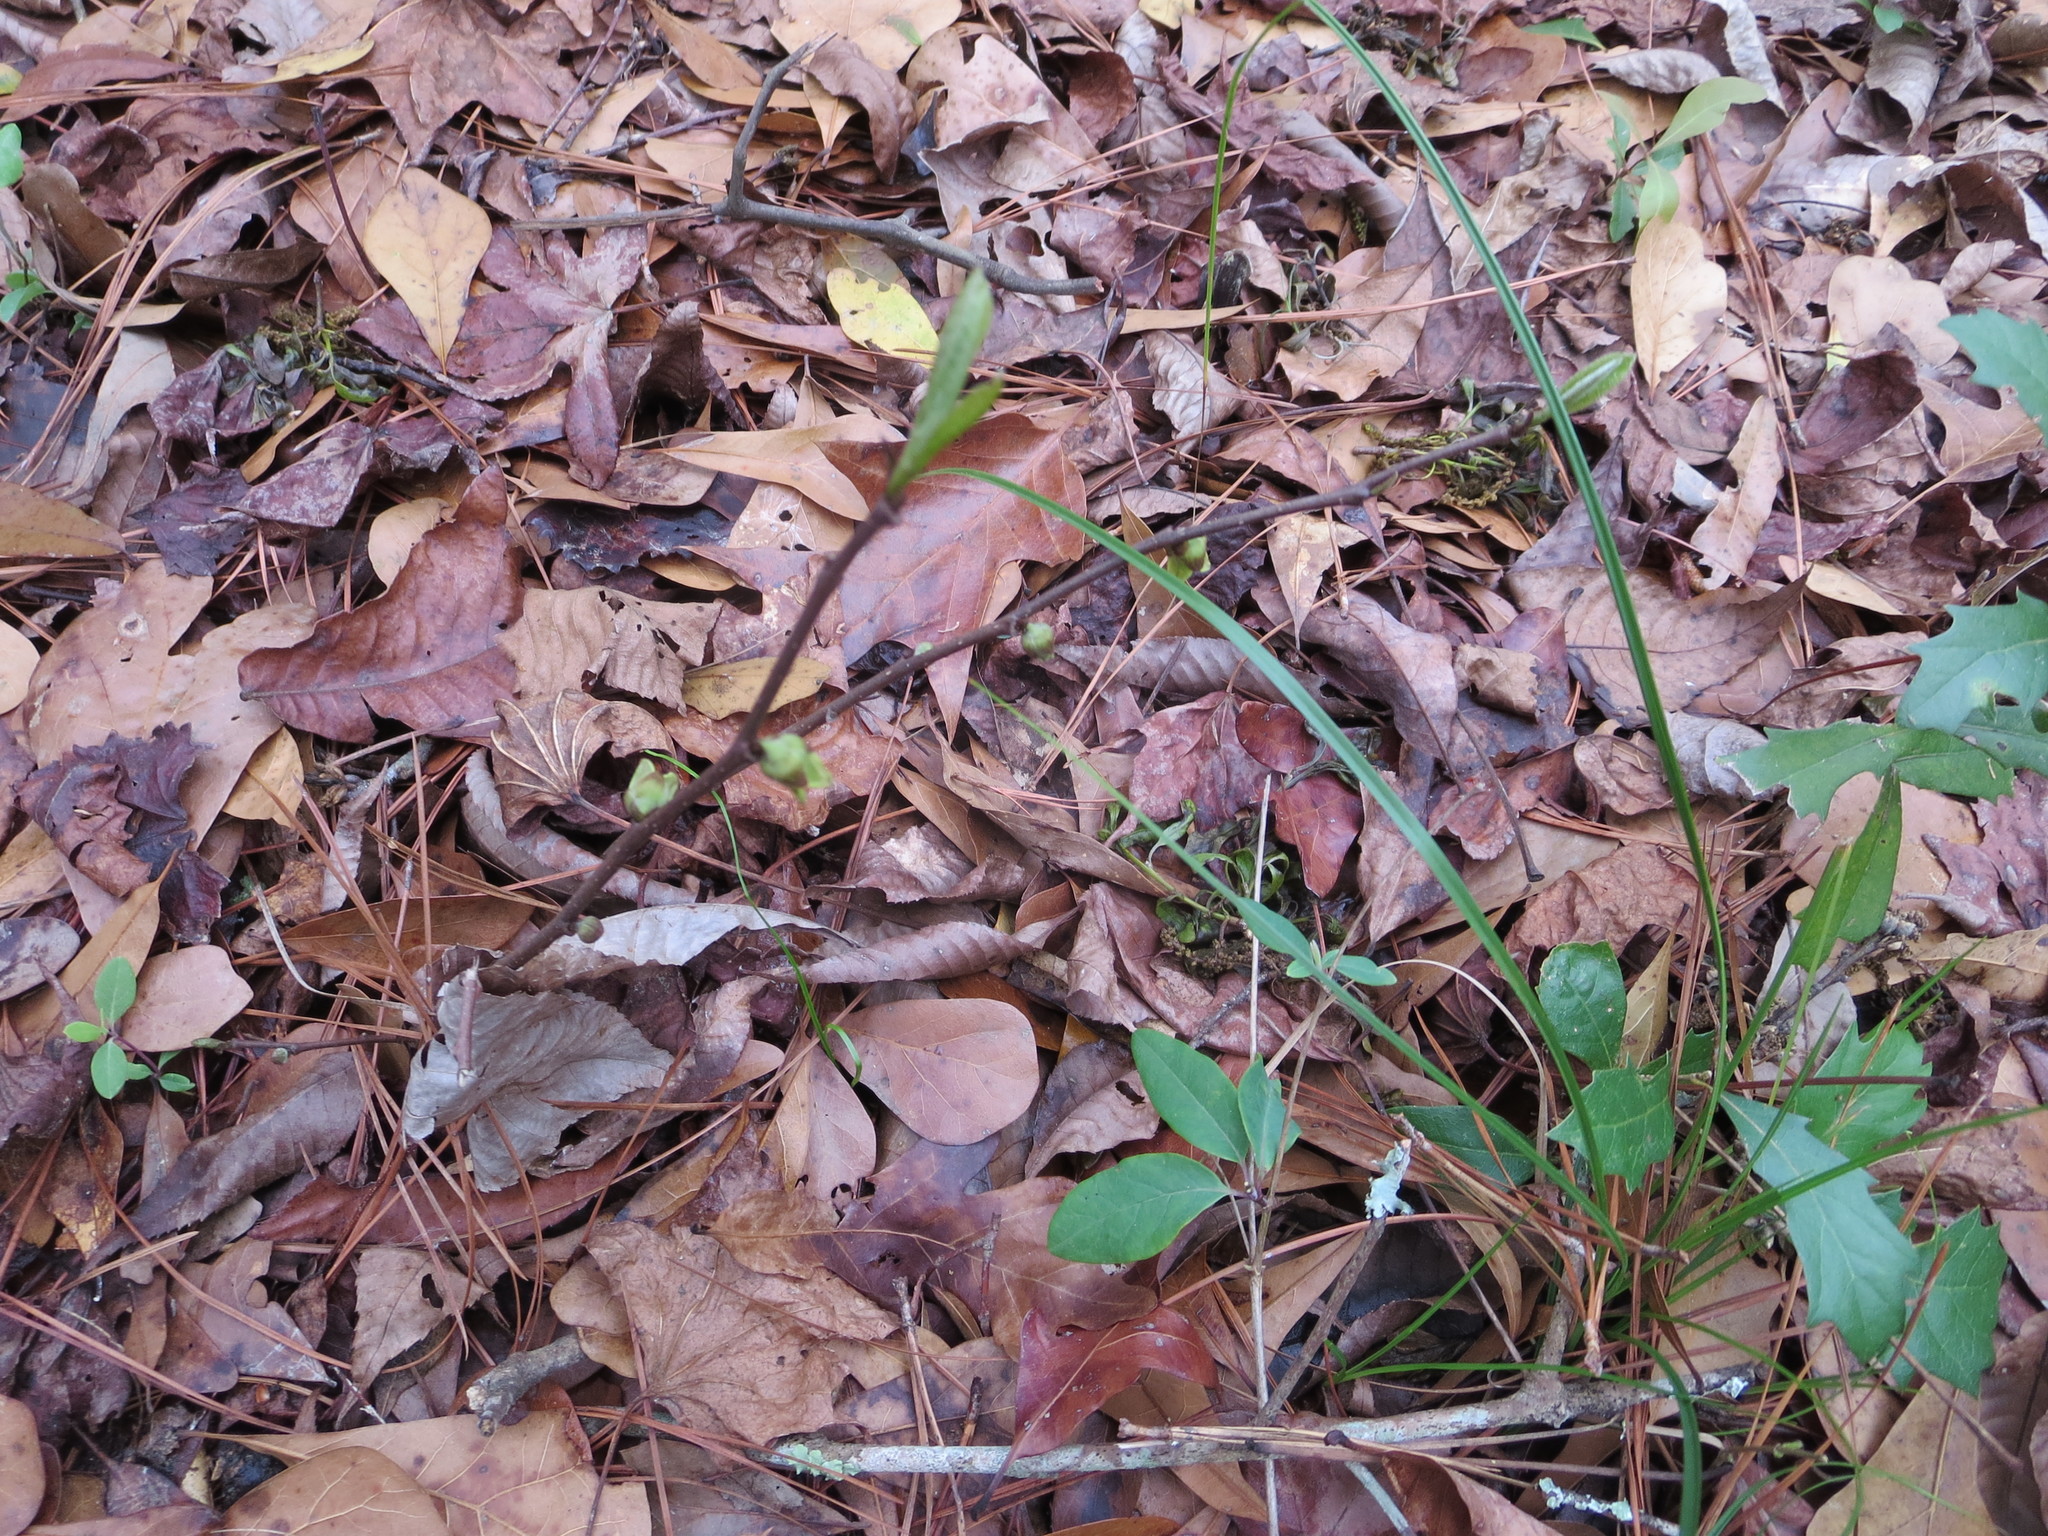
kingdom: Plantae
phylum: Tracheophyta
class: Magnoliopsida
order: Magnoliales
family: Annonaceae
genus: Asimina
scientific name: Asimina parviflora
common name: Dwarf pawpaw
